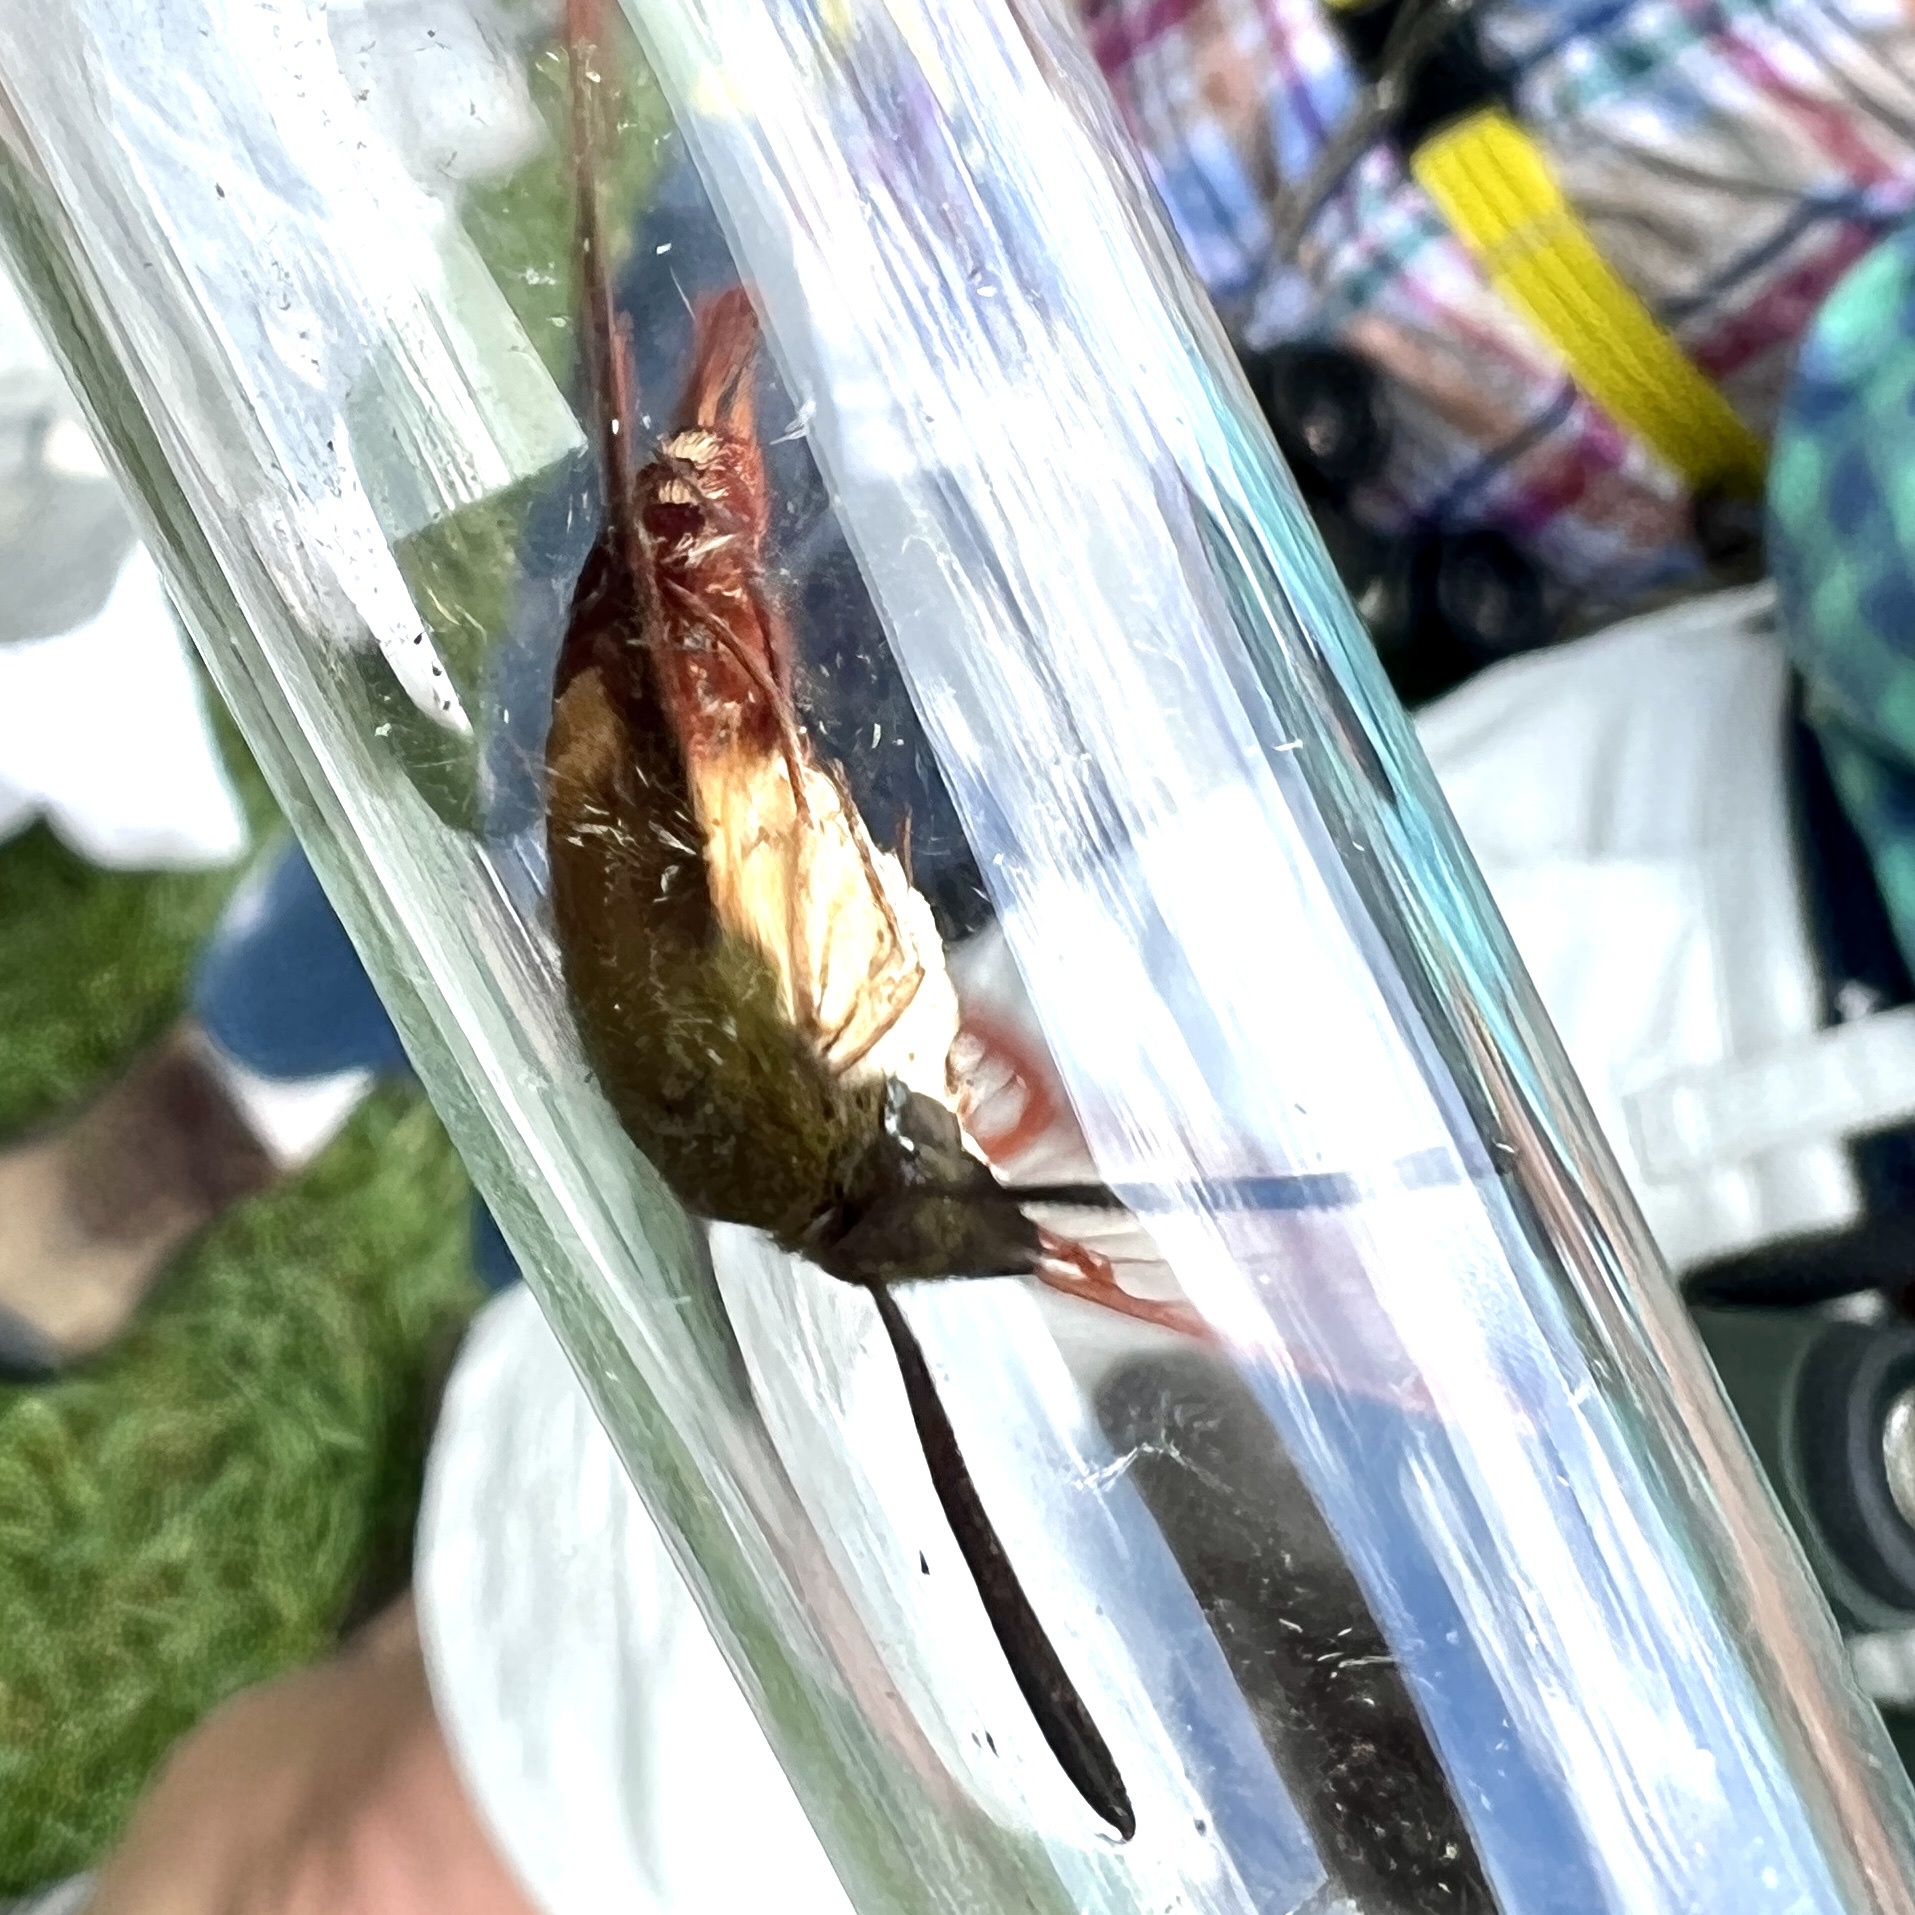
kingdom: Animalia
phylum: Arthropoda
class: Insecta
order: Lepidoptera
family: Sphingidae
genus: Hemaris
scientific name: Hemaris thysbe
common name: Common clear-wing
